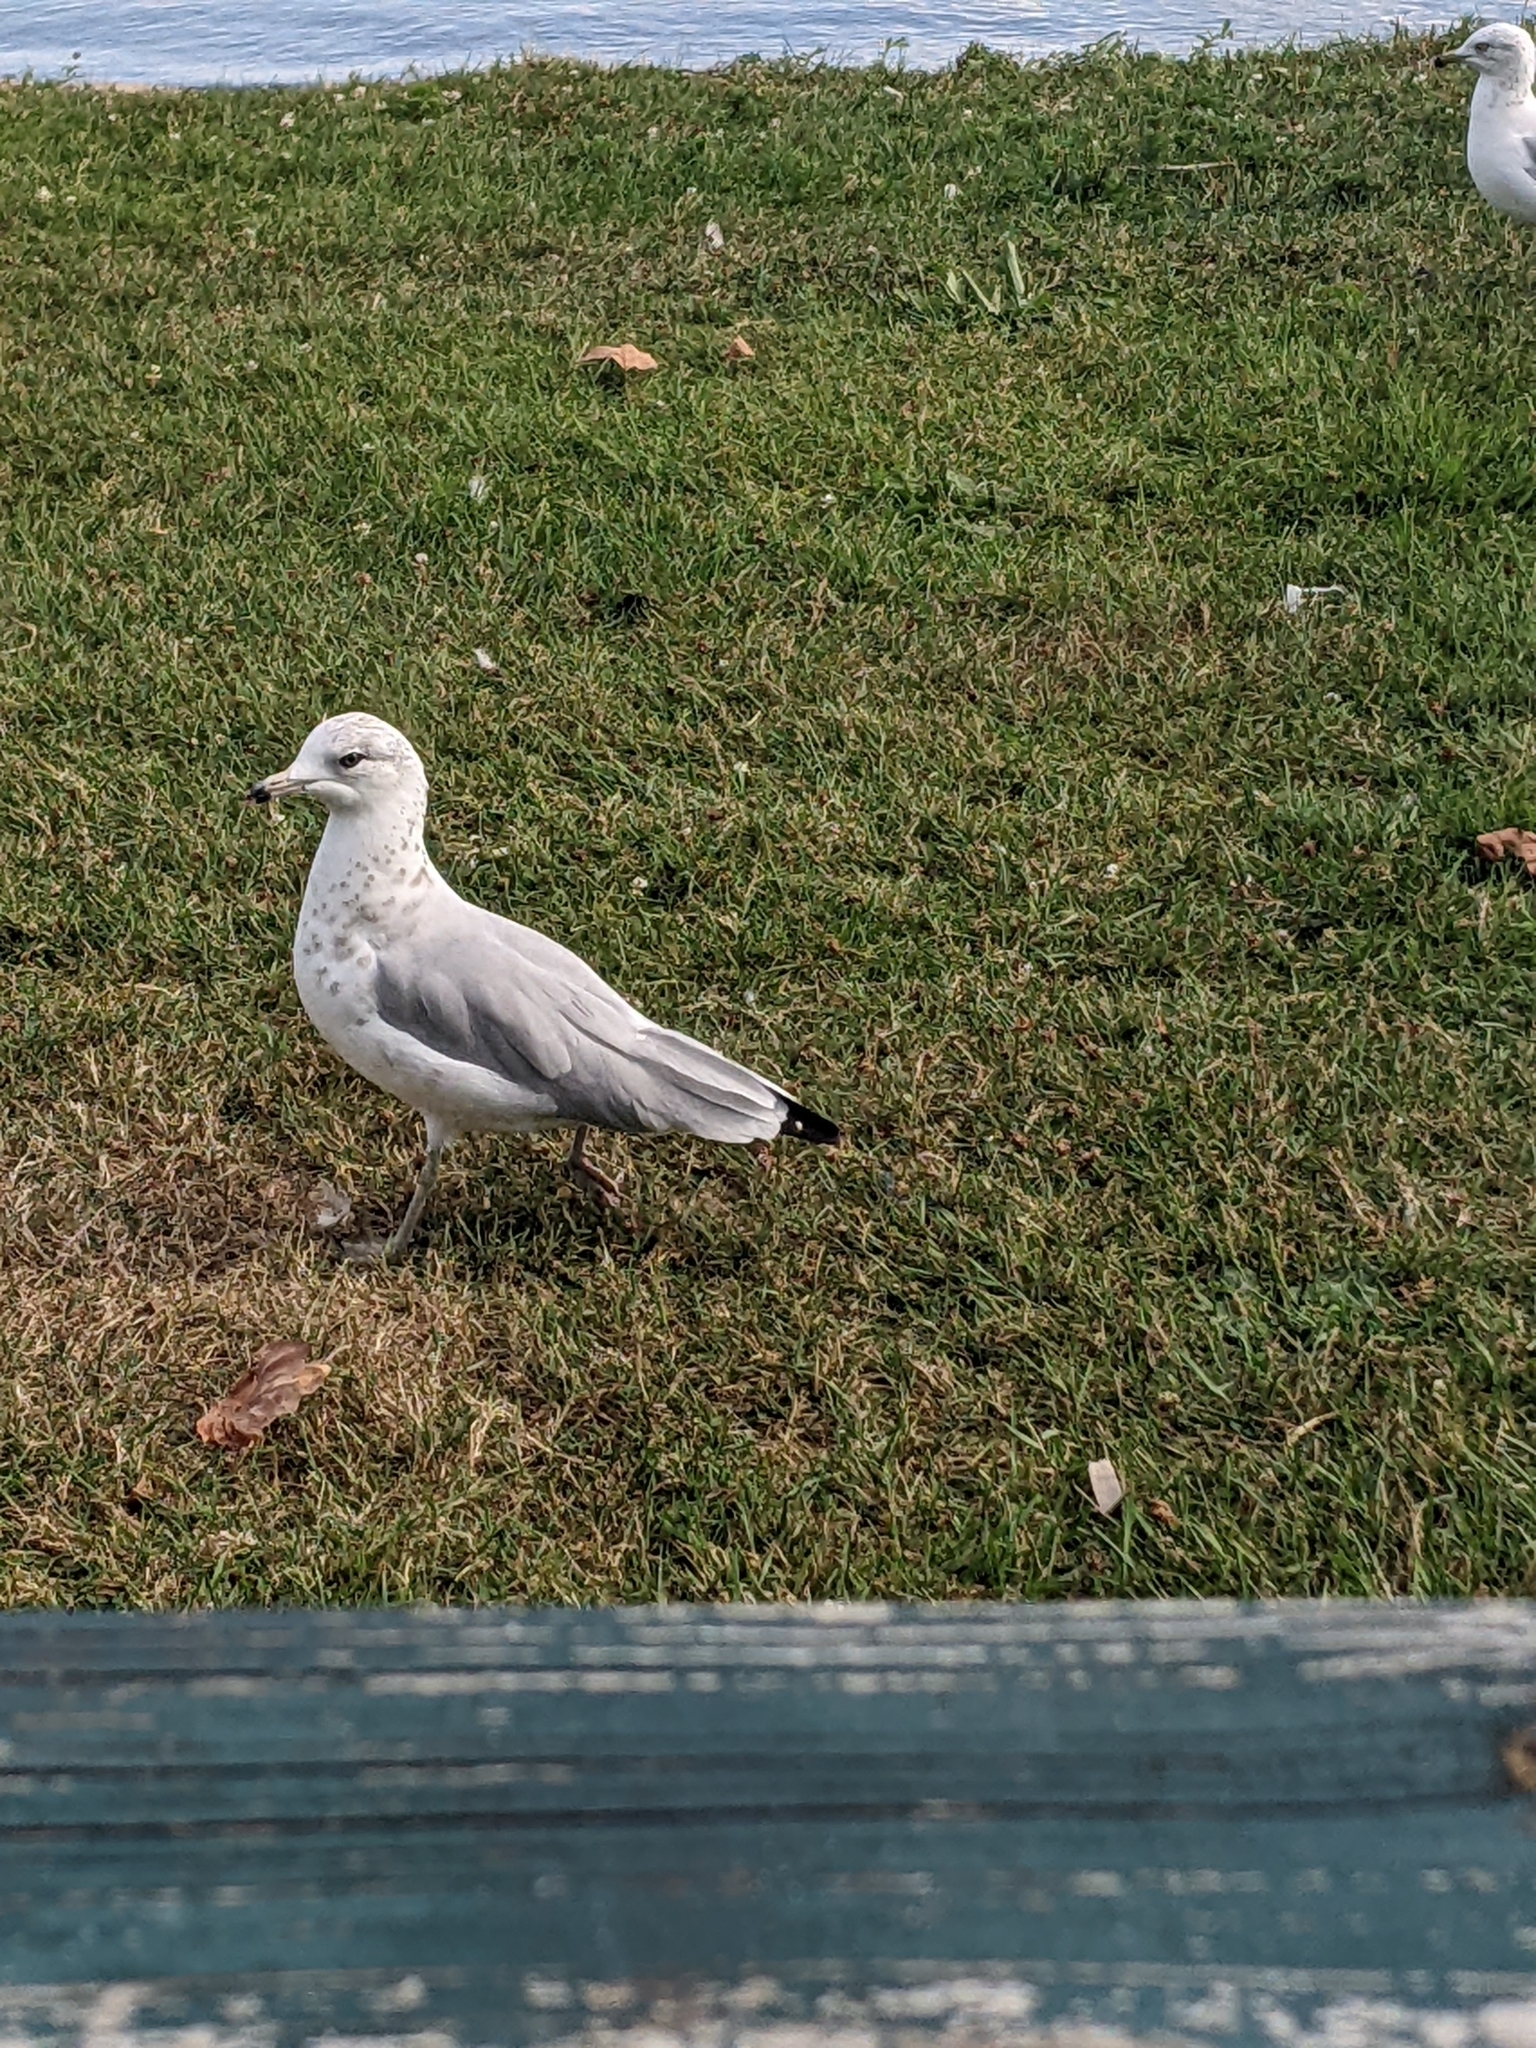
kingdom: Animalia
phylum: Chordata
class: Aves
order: Charadriiformes
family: Laridae
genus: Larus
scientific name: Larus delawarensis
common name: Ring-billed gull
